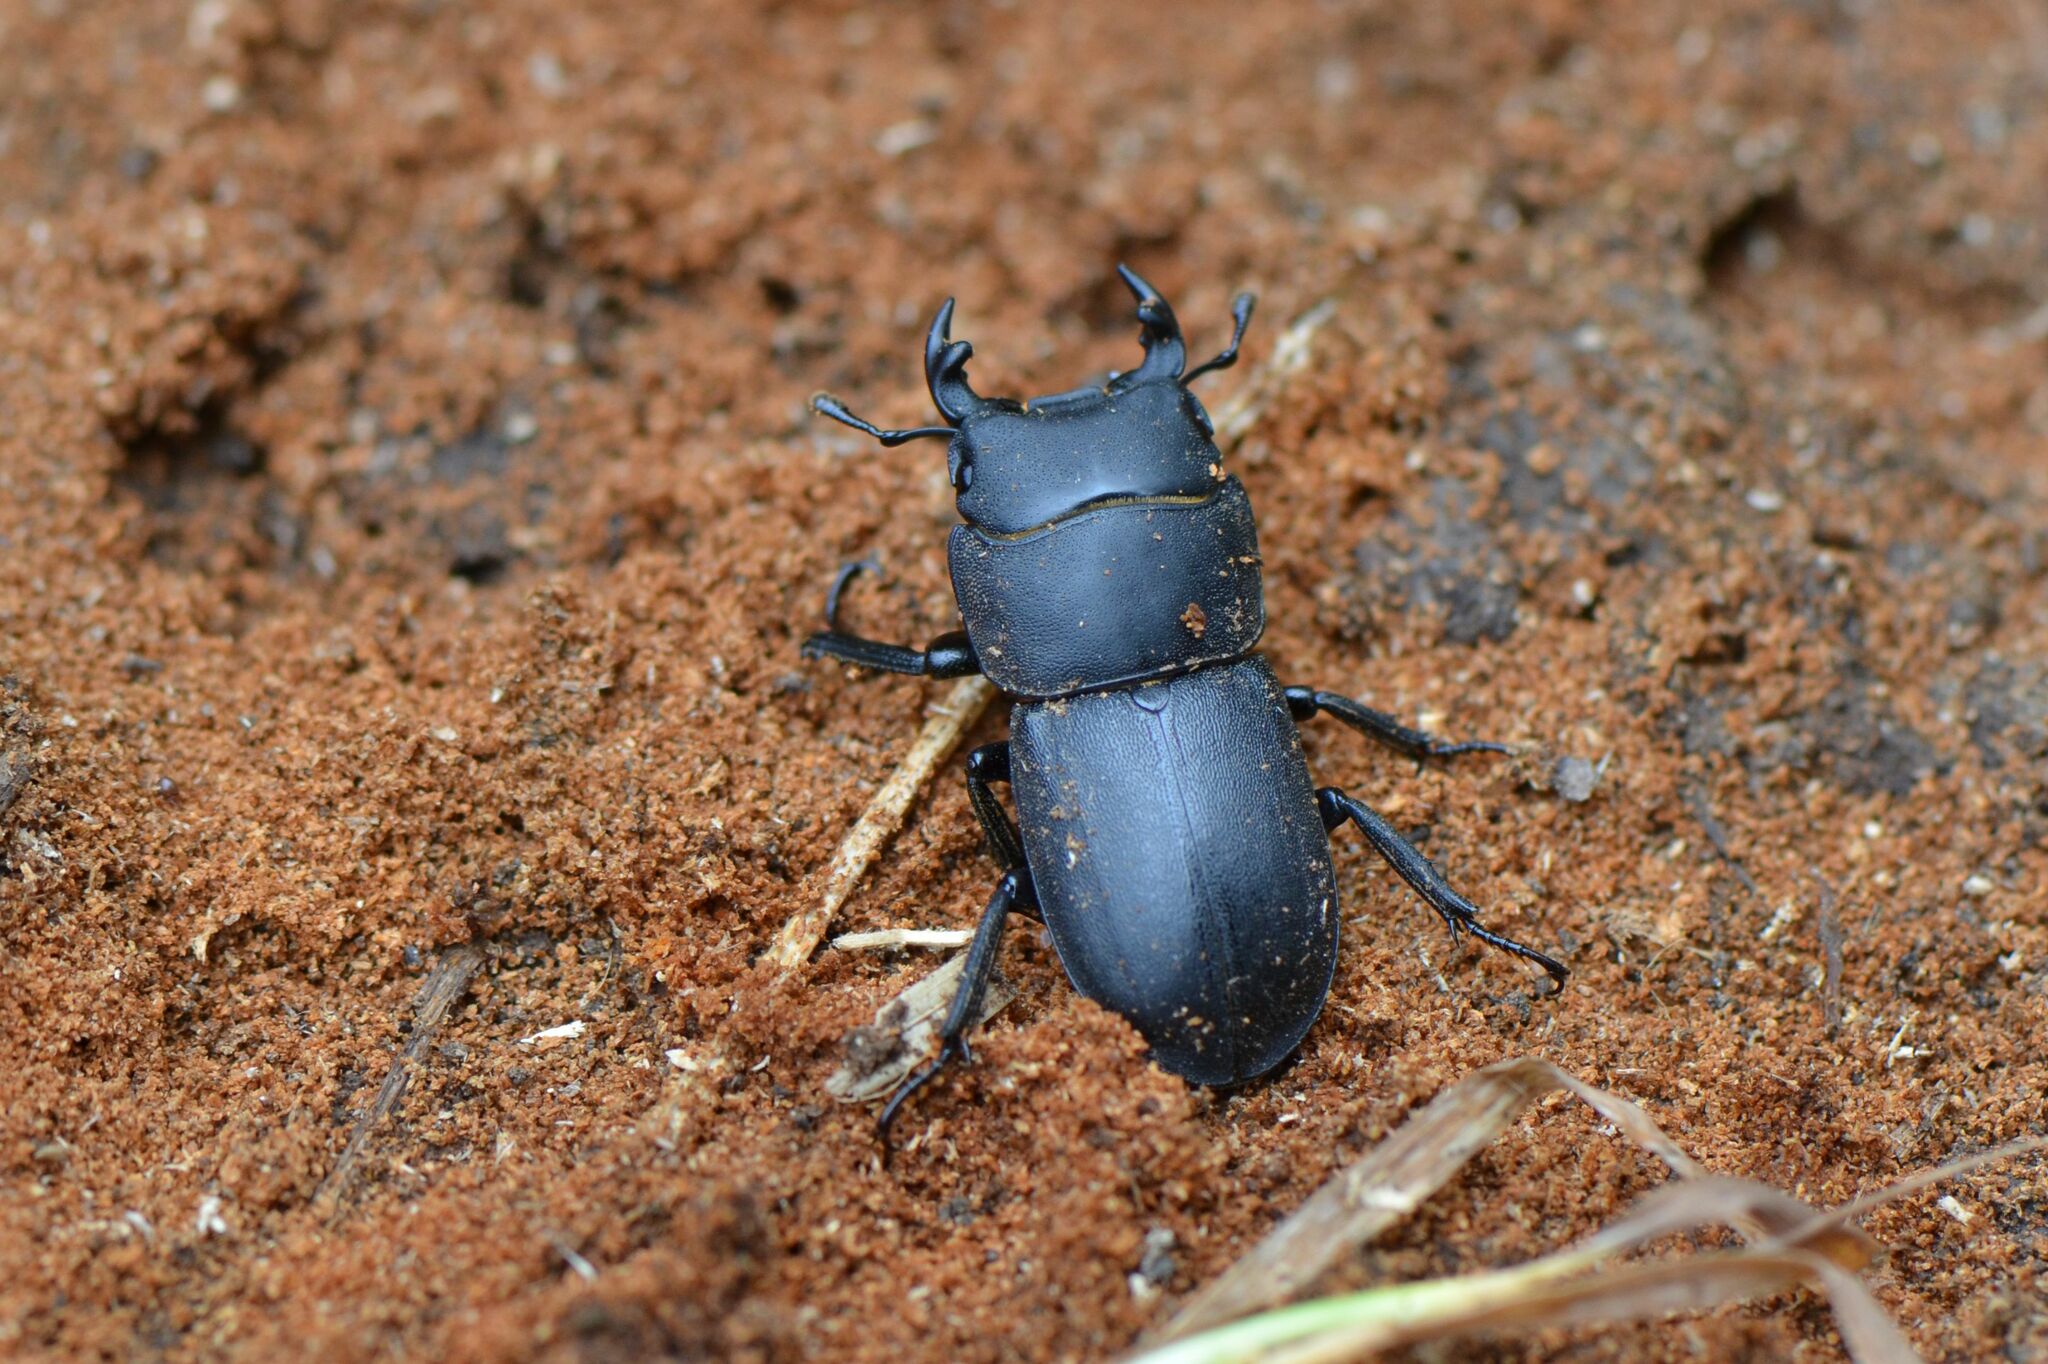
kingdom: Animalia
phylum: Arthropoda
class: Insecta
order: Coleoptera
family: Lucanidae
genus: Dorcus
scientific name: Dorcus parallelipipedus
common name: Lesser stag beetle
